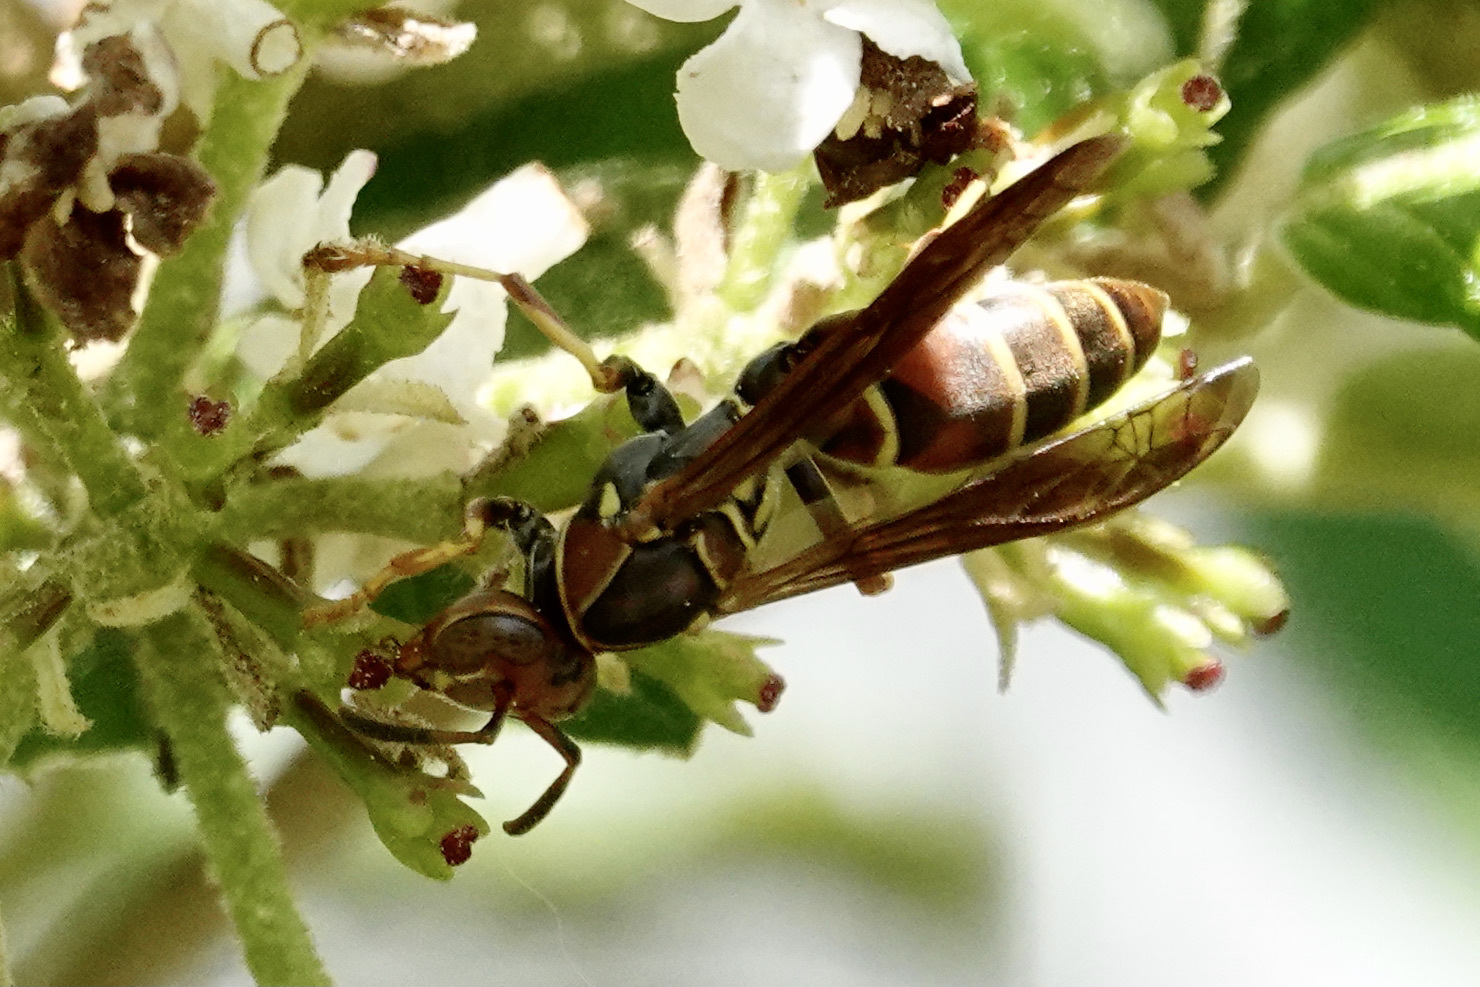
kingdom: Animalia
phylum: Arthropoda
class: Insecta
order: Hymenoptera
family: Eumenidae
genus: Polistes
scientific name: Polistes dorsalis
